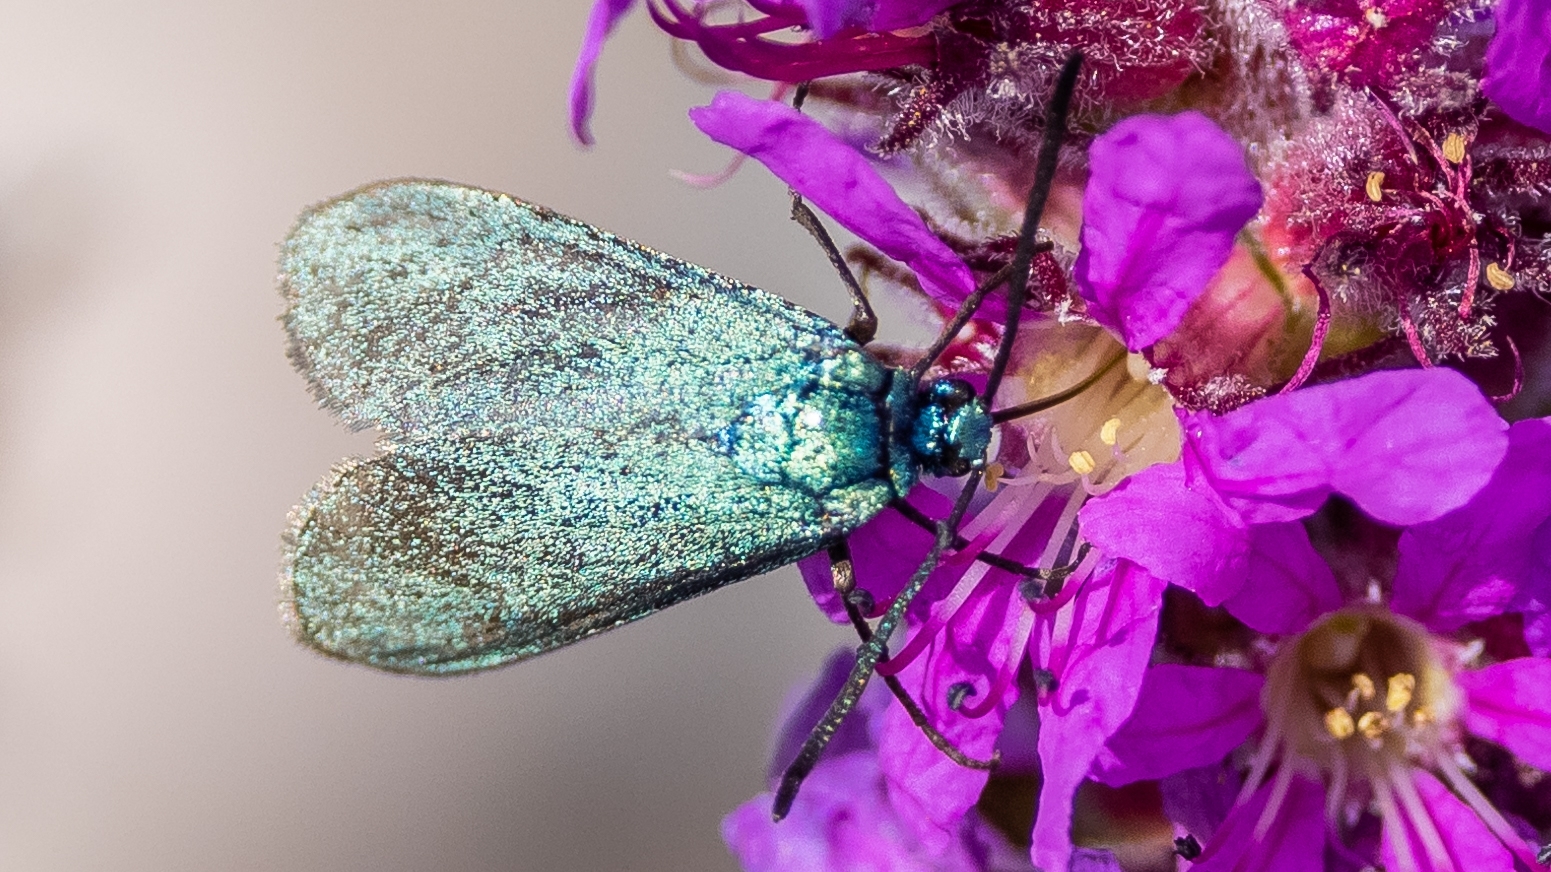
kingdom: Animalia
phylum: Arthropoda
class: Insecta
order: Lepidoptera
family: Zygaenidae
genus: Adscita
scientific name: Adscita statices
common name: Forester
